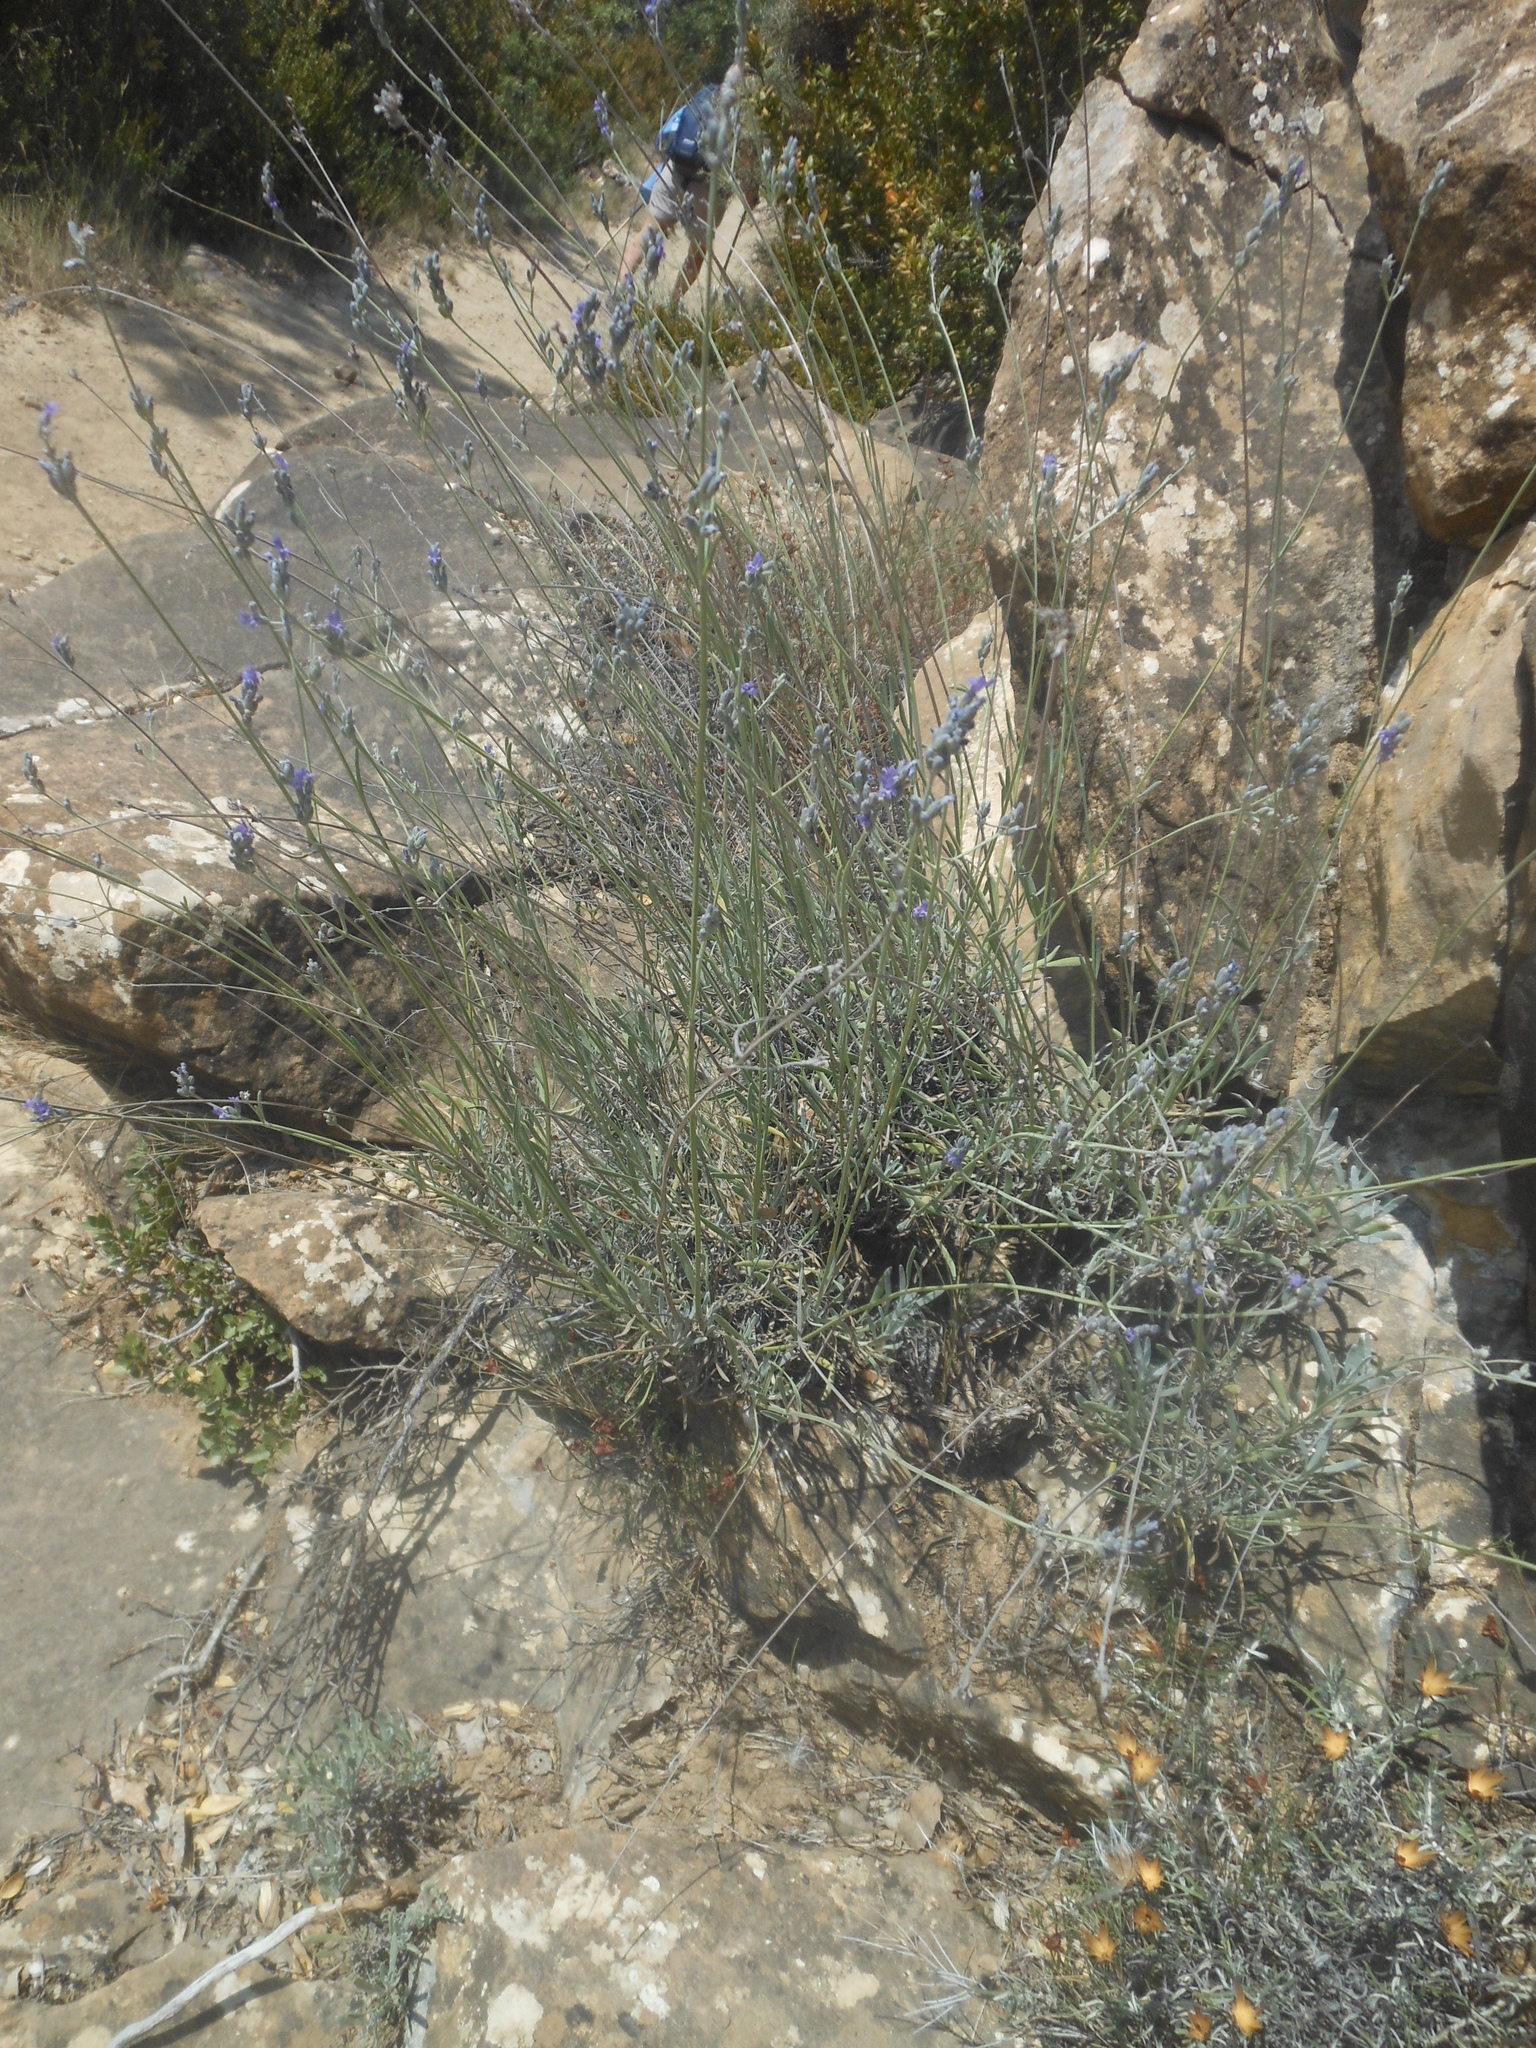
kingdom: Plantae
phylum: Tracheophyta
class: Magnoliopsida
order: Lamiales
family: Lamiaceae
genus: Lavandula
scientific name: Lavandula latifolia
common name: Spike lavendar
